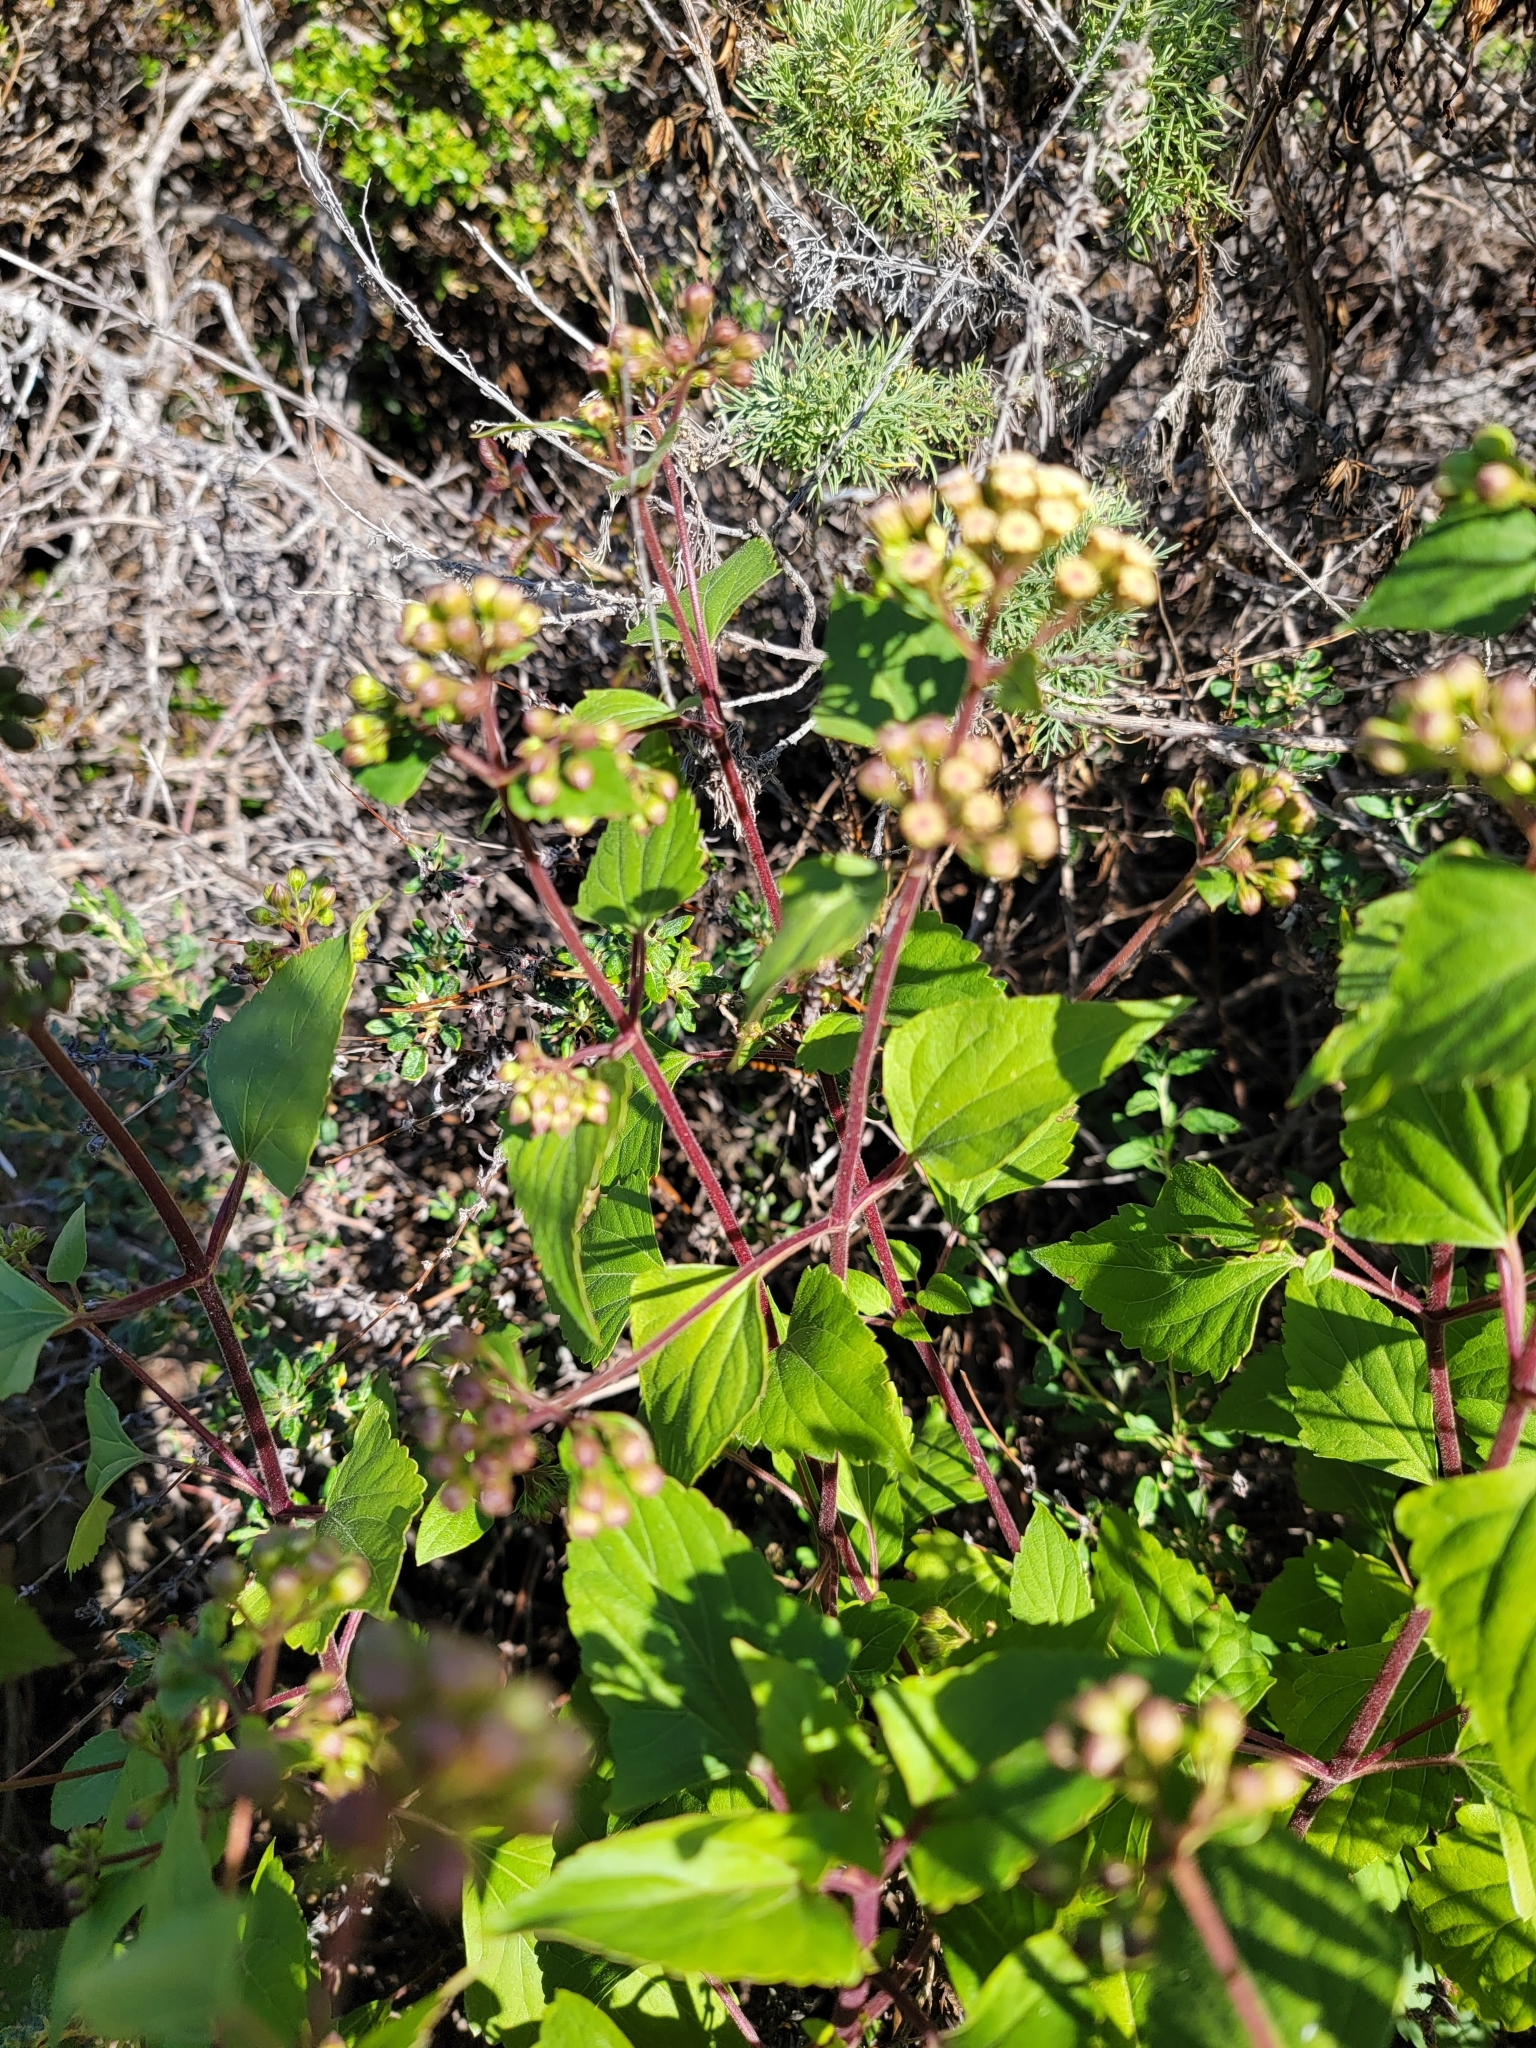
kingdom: Plantae
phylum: Tracheophyta
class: Magnoliopsida
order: Asterales
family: Asteraceae
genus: Ageratina
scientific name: Ageratina adenophora
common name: Sticky snakeroot
